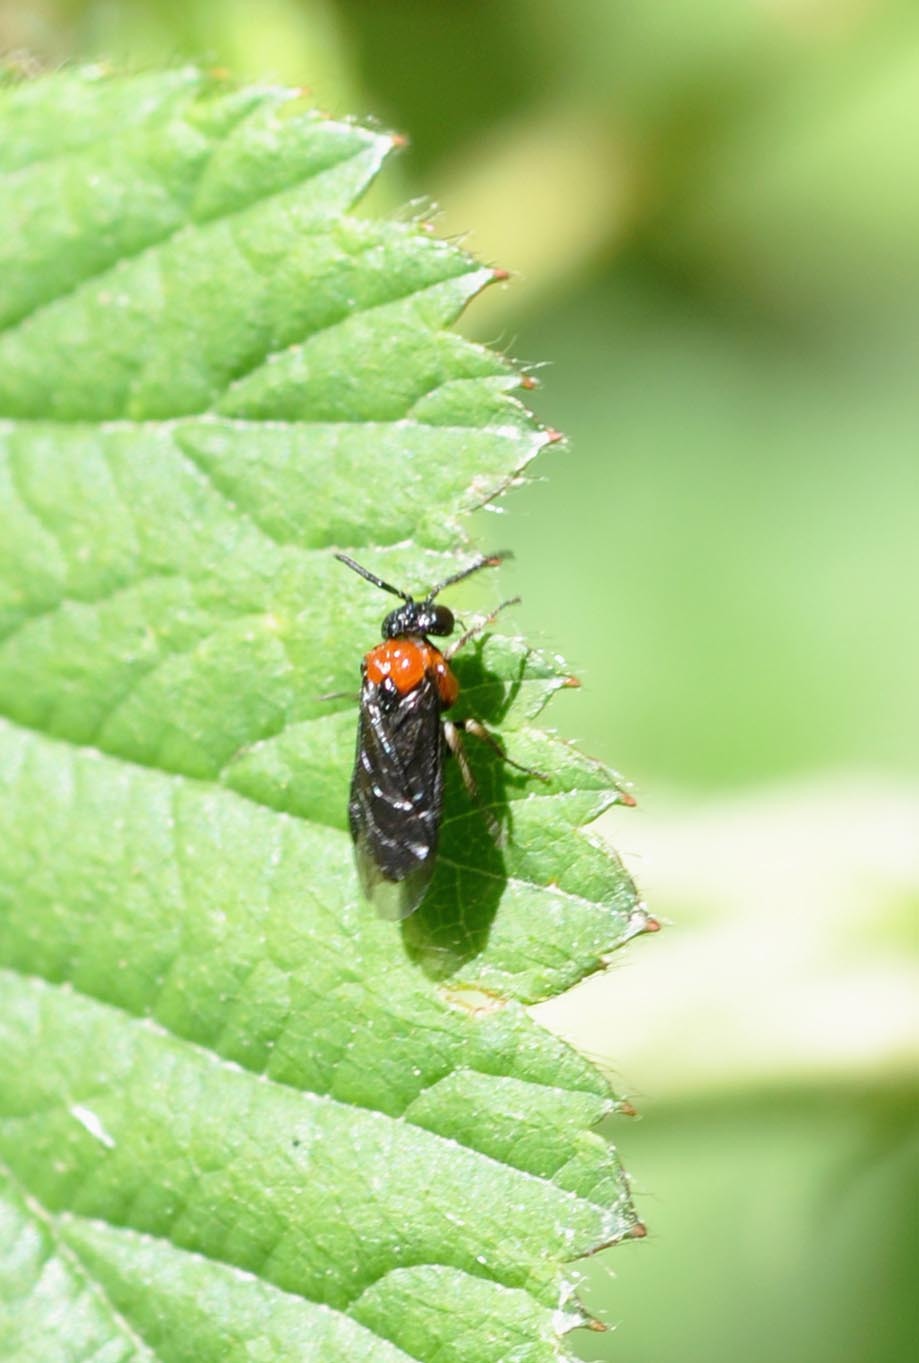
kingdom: Animalia
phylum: Arthropoda
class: Insecta
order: Hymenoptera
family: Tenthredinidae
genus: Eutomostethus
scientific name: Eutomostethus ephippium
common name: Tenthredid wasp
